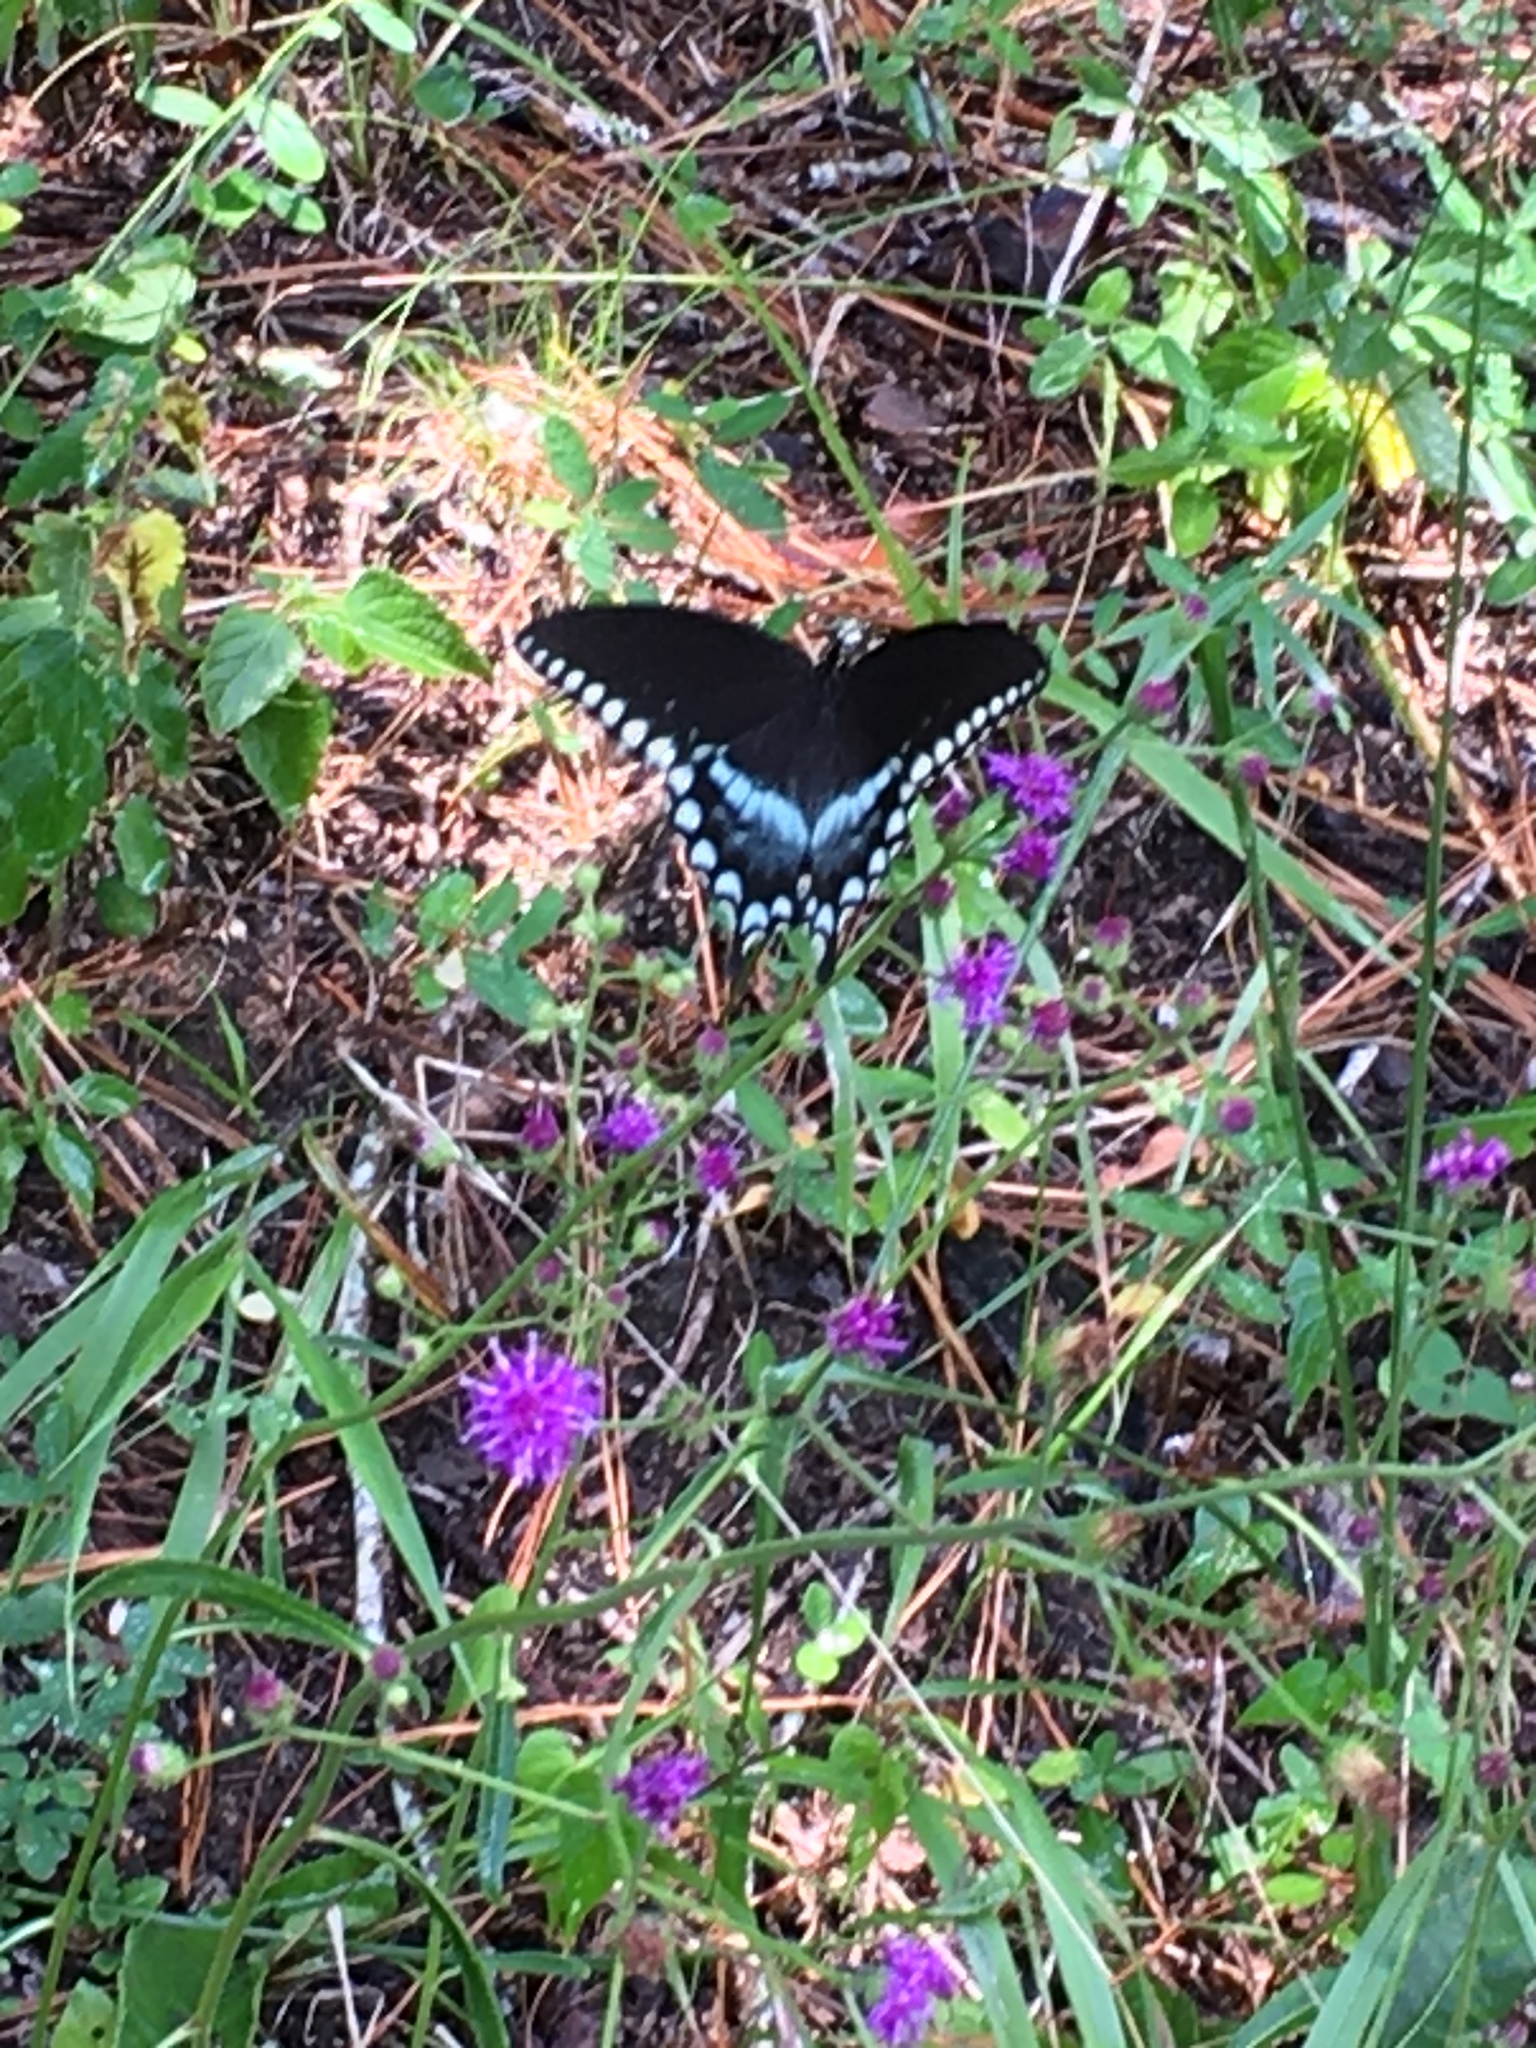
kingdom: Animalia
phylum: Arthropoda
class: Insecta
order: Lepidoptera
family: Papilionidae
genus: Papilio
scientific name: Papilio troilus
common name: Spicebush swallowtail
